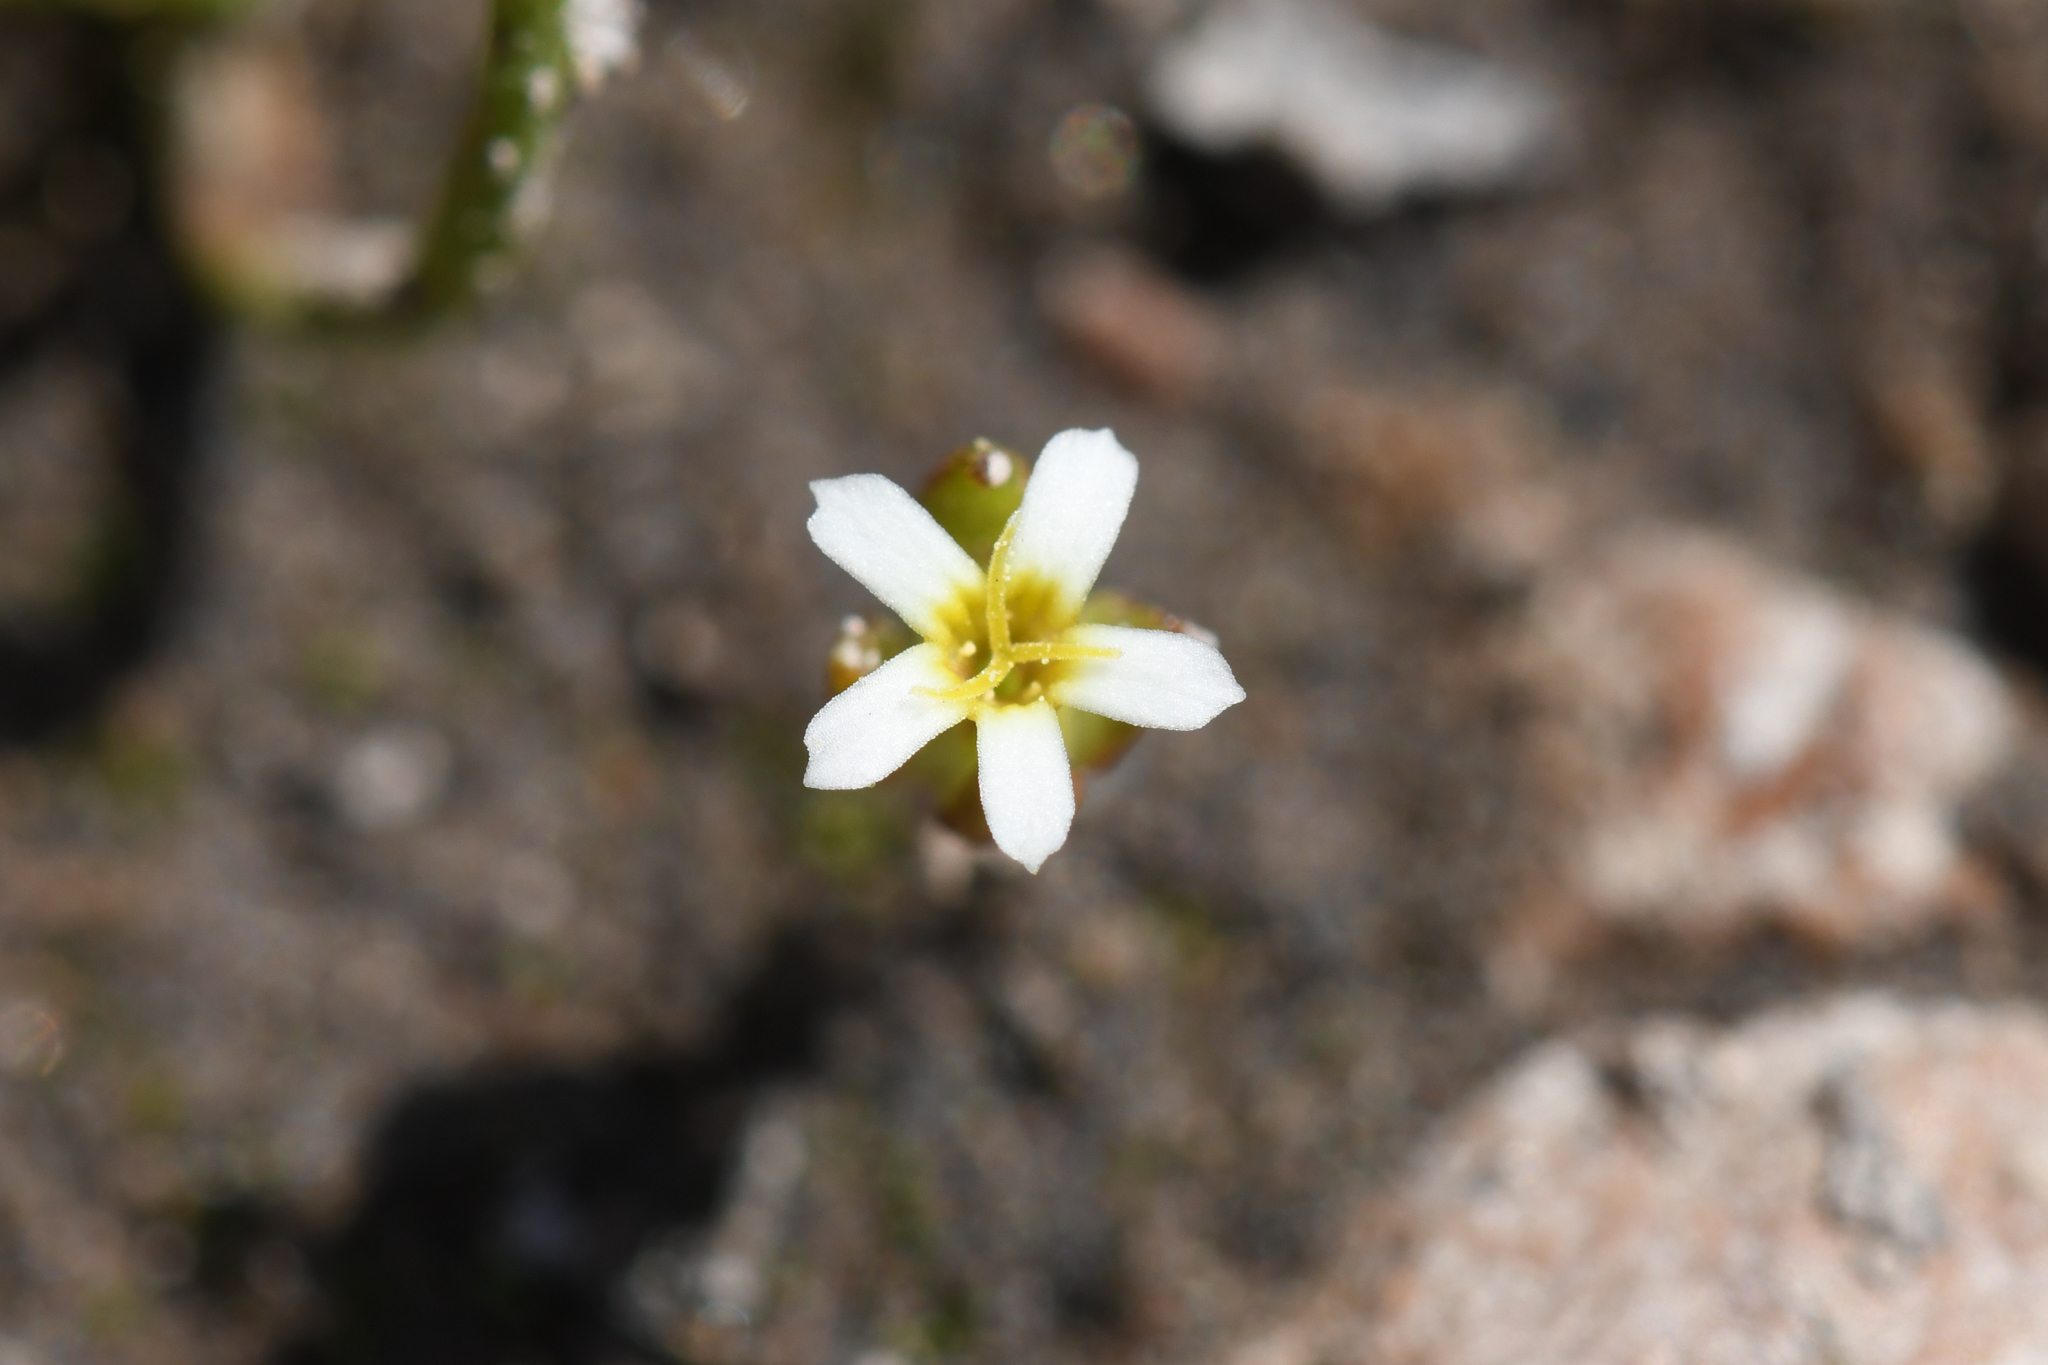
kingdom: Plantae
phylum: Tracheophyta
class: Magnoliopsida
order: Ericales
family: Polemoniaceae
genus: Gymnosteris
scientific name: Gymnosteris parvula
